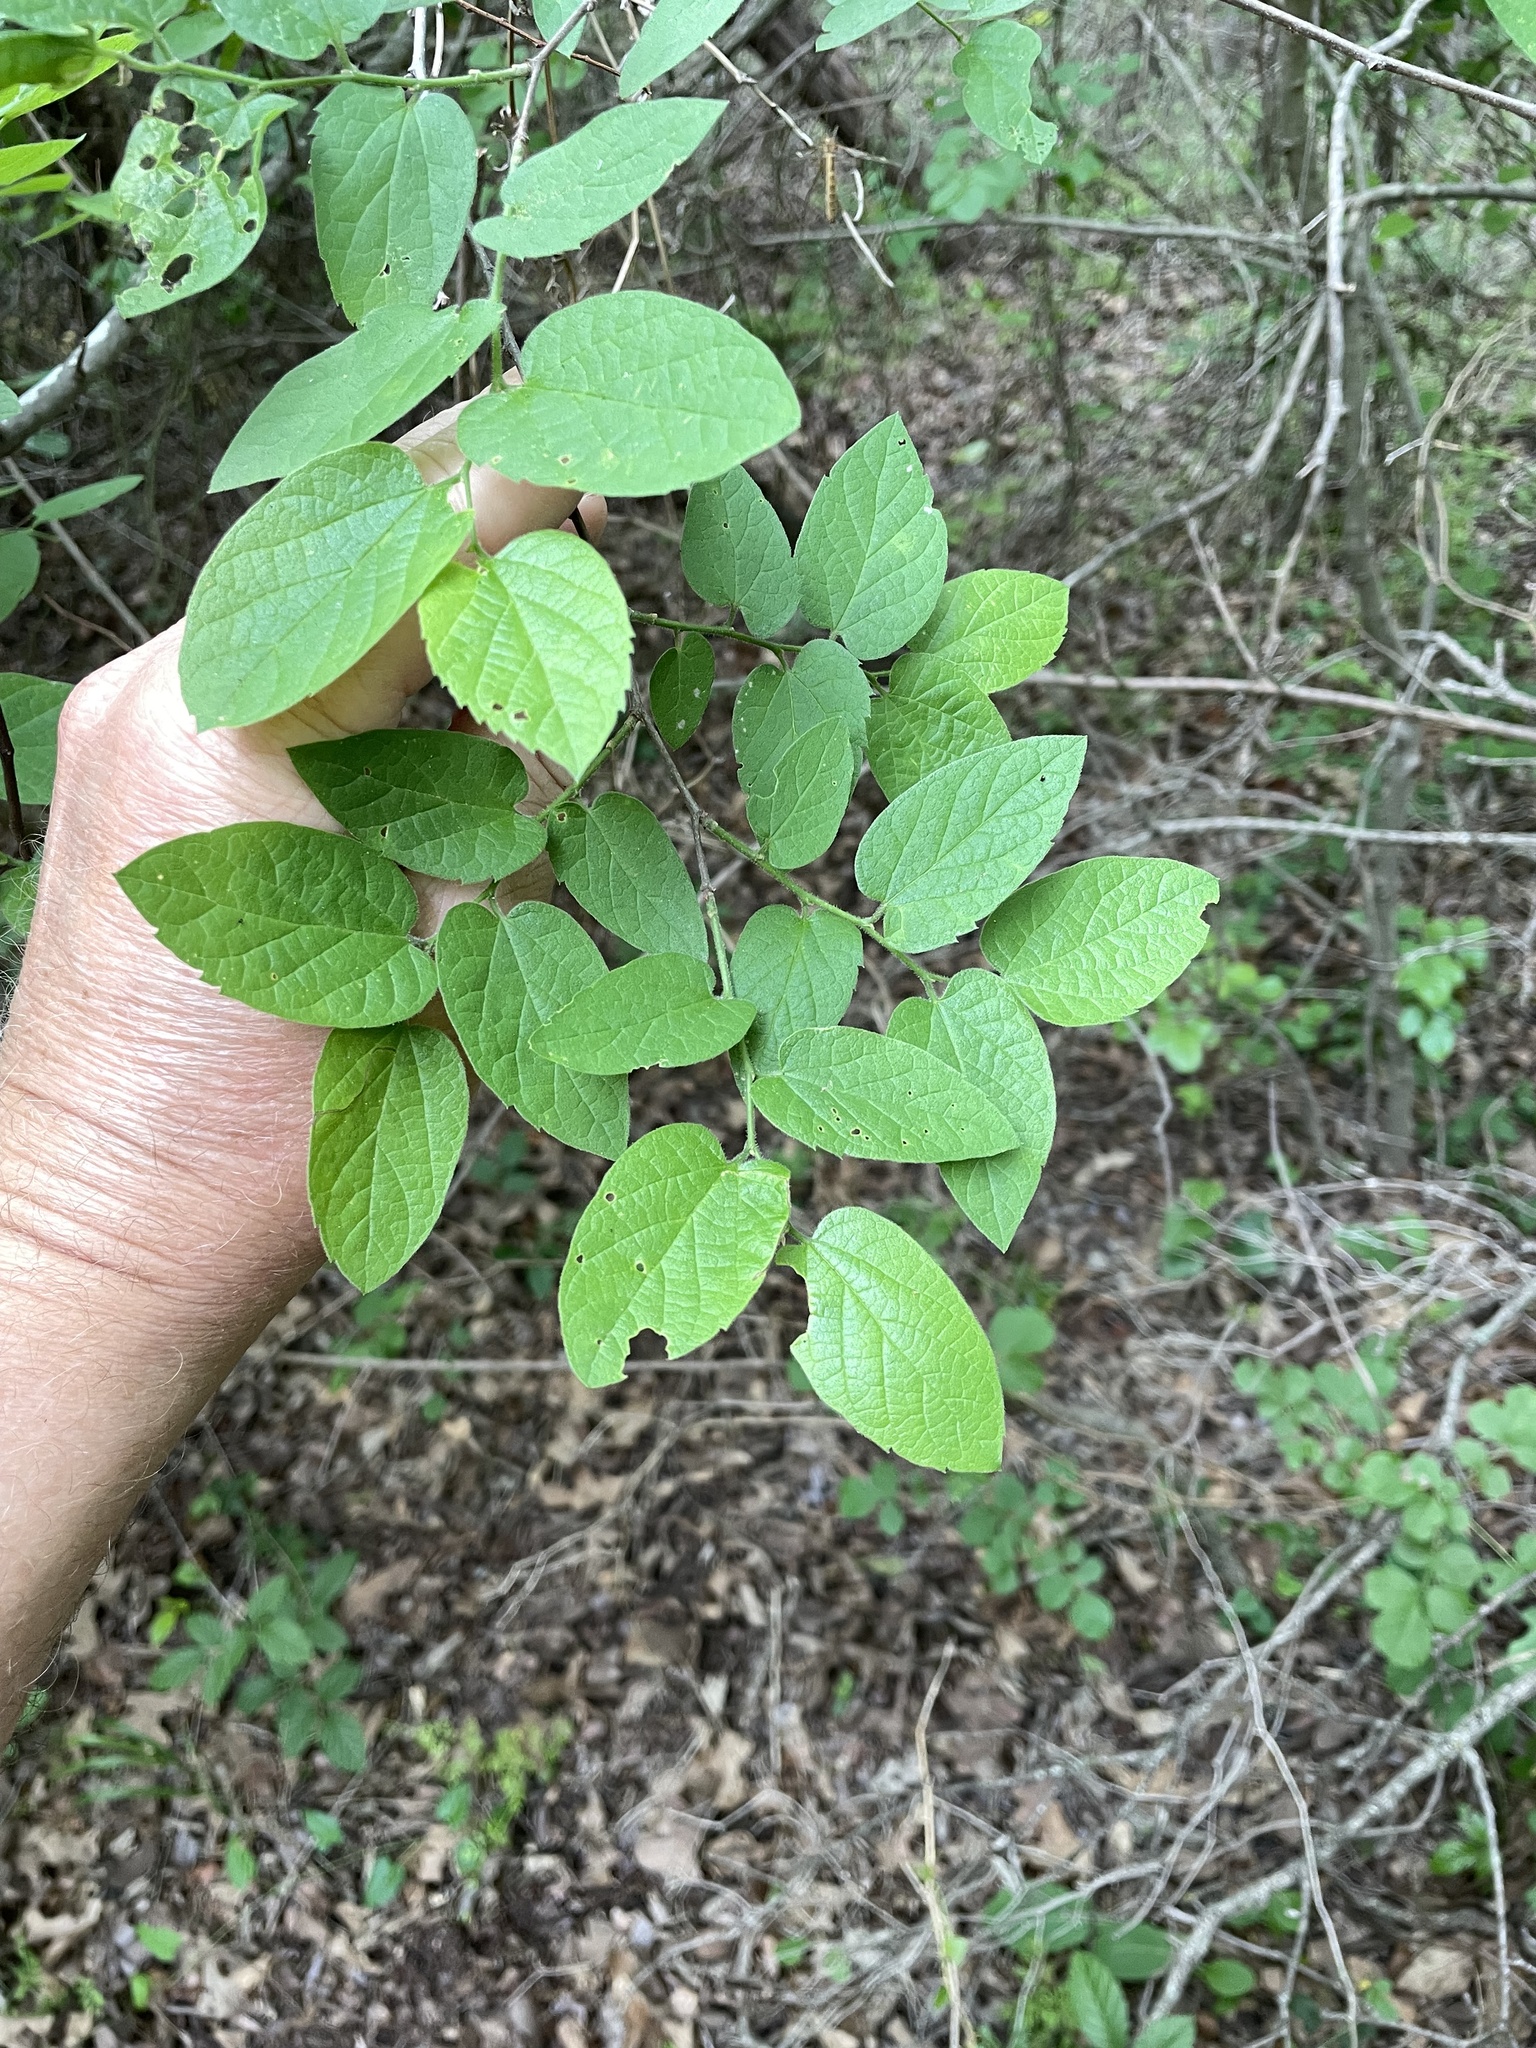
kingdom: Plantae
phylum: Tracheophyta
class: Magnoliopsida
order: Rosales
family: Cannabaceae
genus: Celtis
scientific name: Celtis reticulata
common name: Netleaf hackberry
